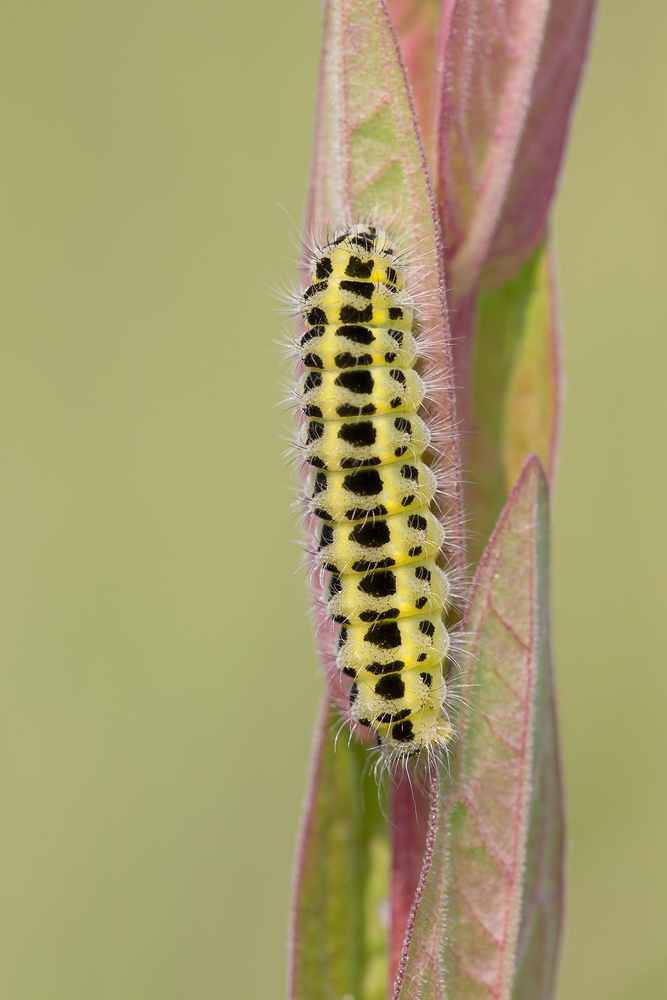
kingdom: Animalia
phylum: Arthropoda
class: Insecta
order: Lepidoptera
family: Zygaenidae
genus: Zygaena
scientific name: Zygaena filipendulae
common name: Six-spot burnet
